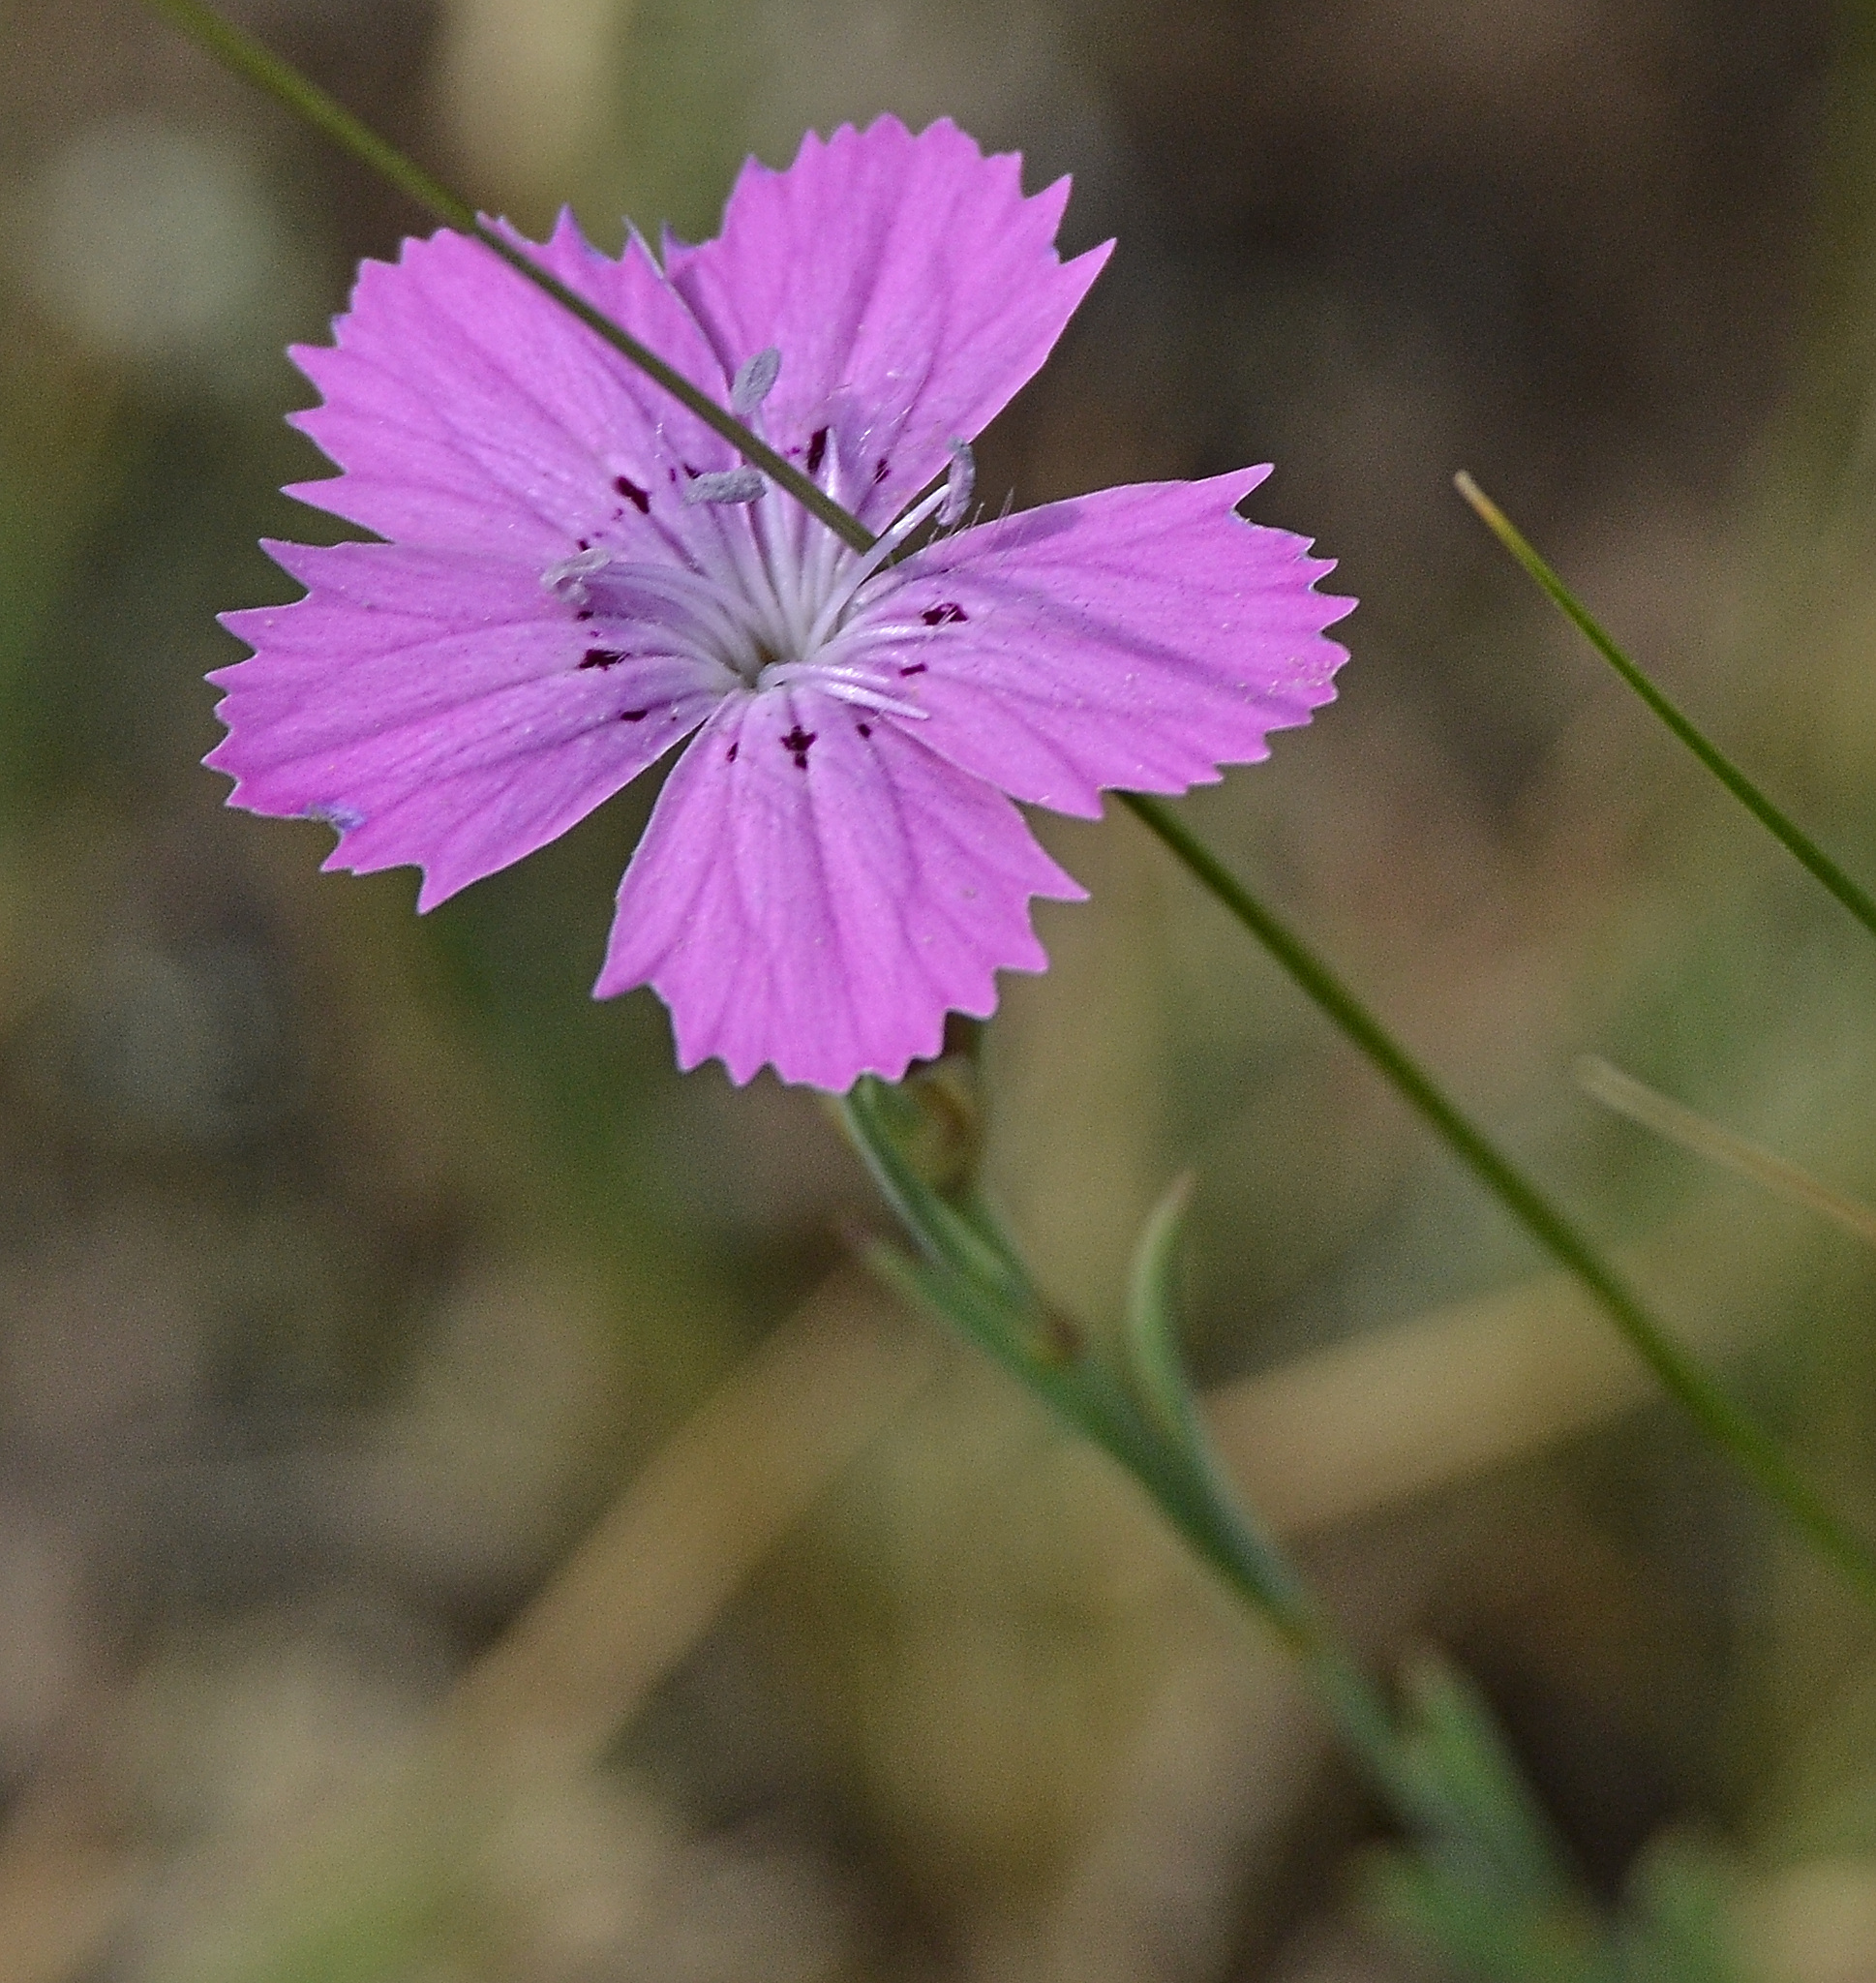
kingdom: Plantae
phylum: Tracheophyta
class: Magnoliopsida
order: Caryophyllales
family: Caryophyllaceae
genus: Dianthus
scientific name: Dianthus chinensis
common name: Rainbow pink
